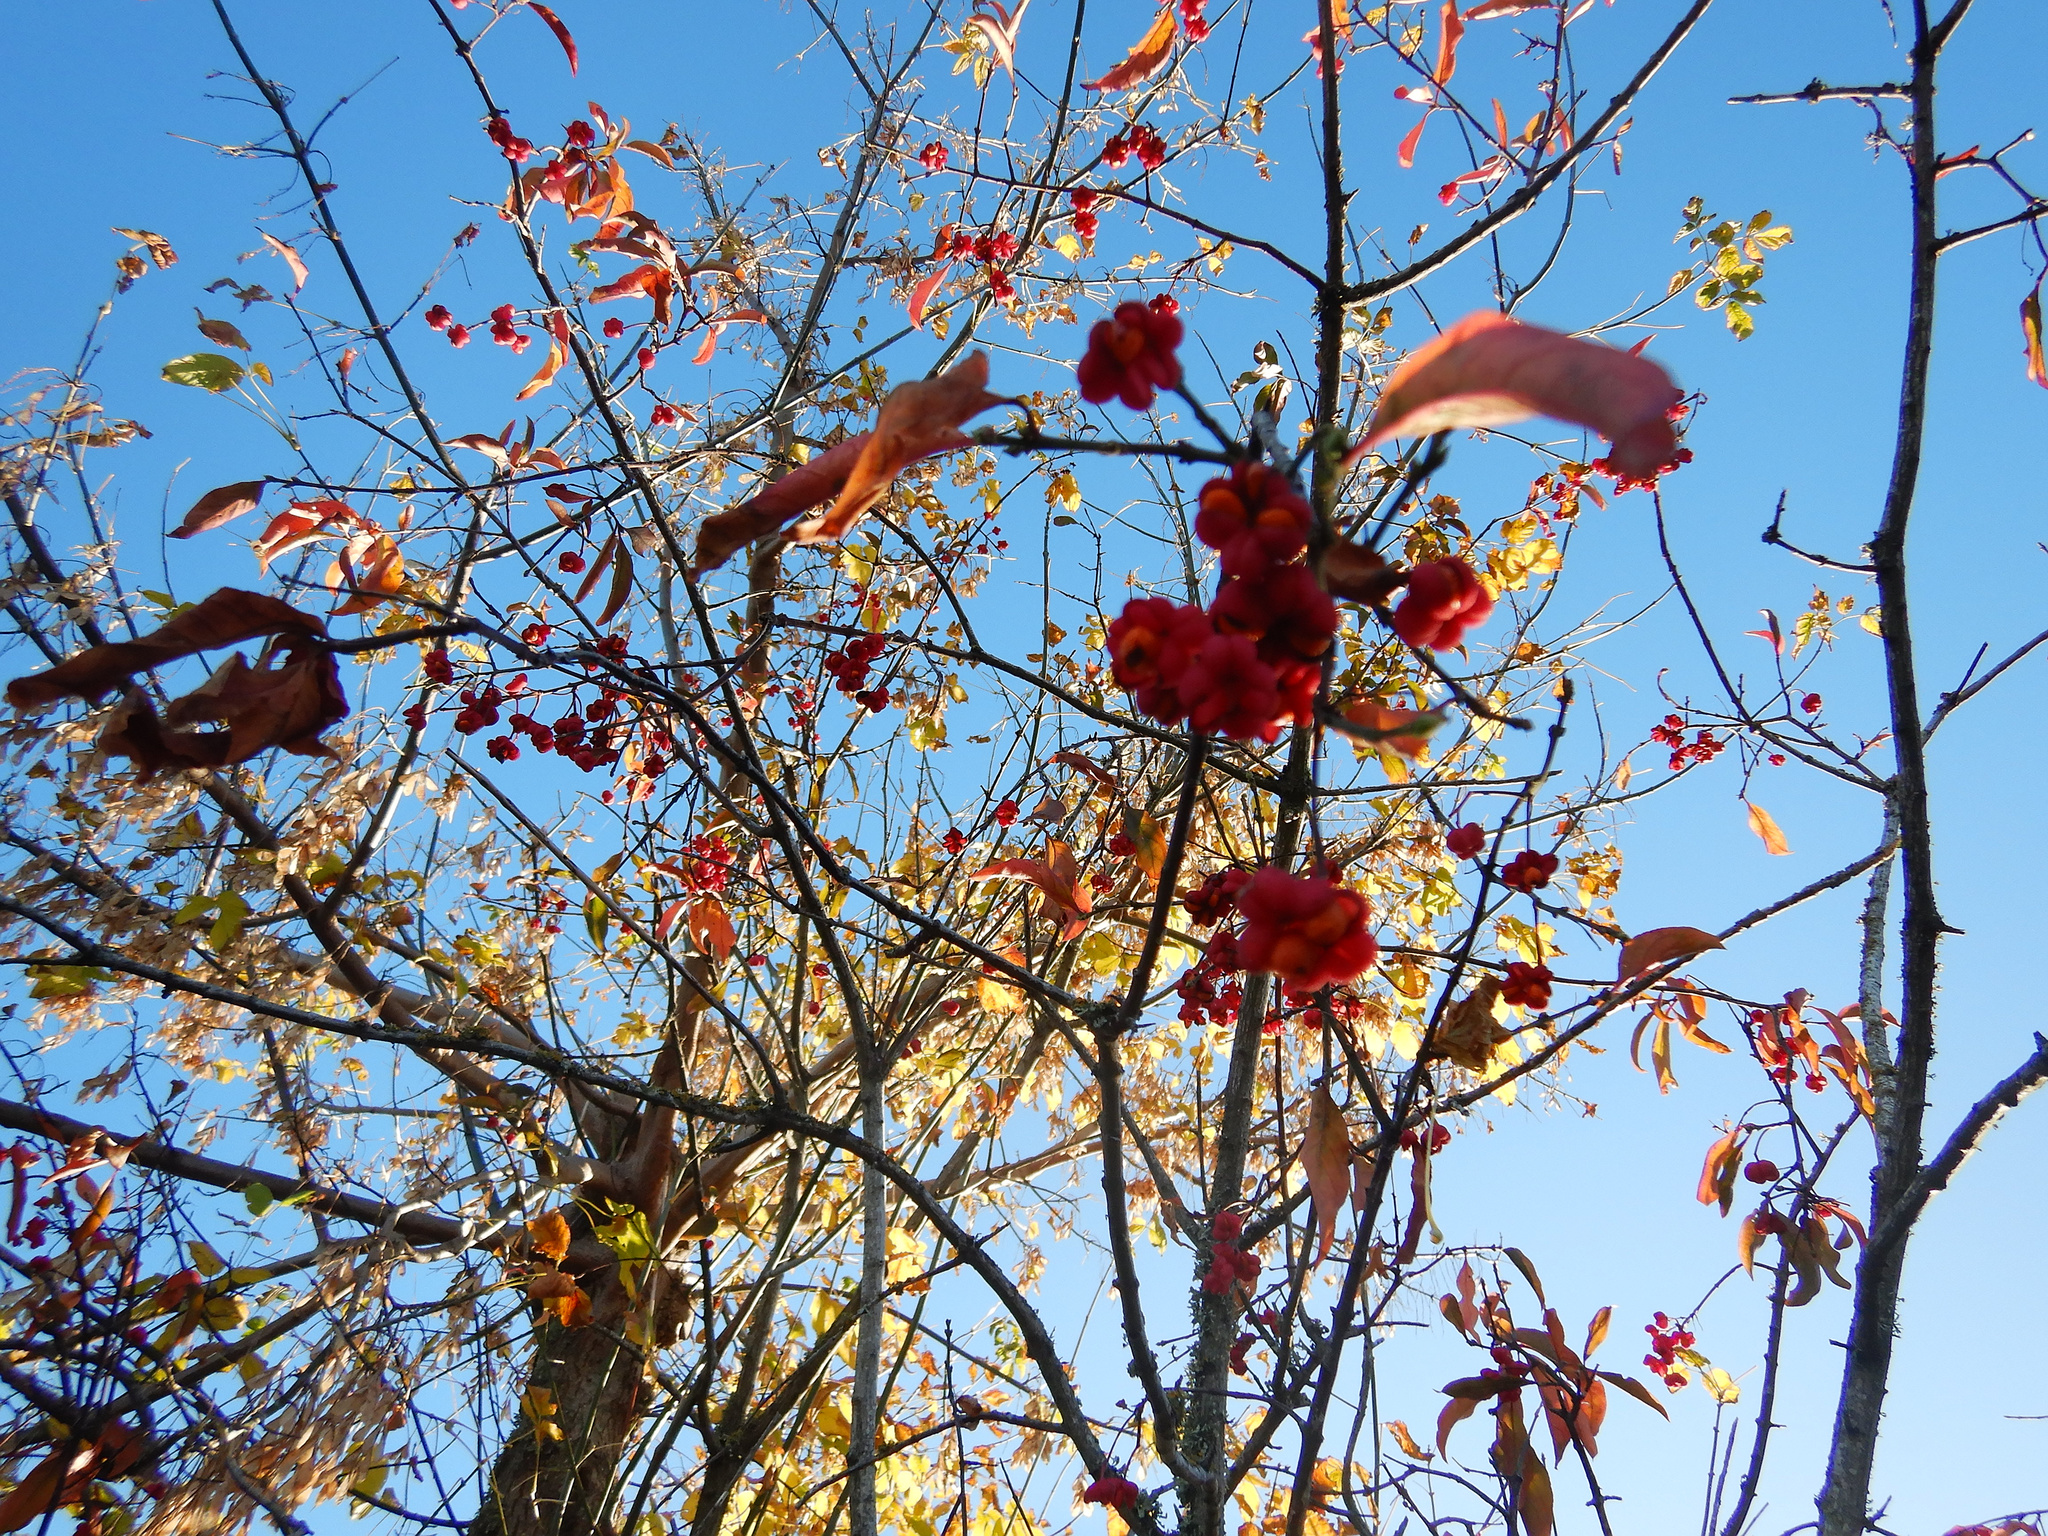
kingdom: Plantae
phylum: Tracheophyta
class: Magnoliopsida
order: Celastrales
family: Celastraceae
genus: Euonymus
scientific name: Euonymus europaeus
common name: Spindle
